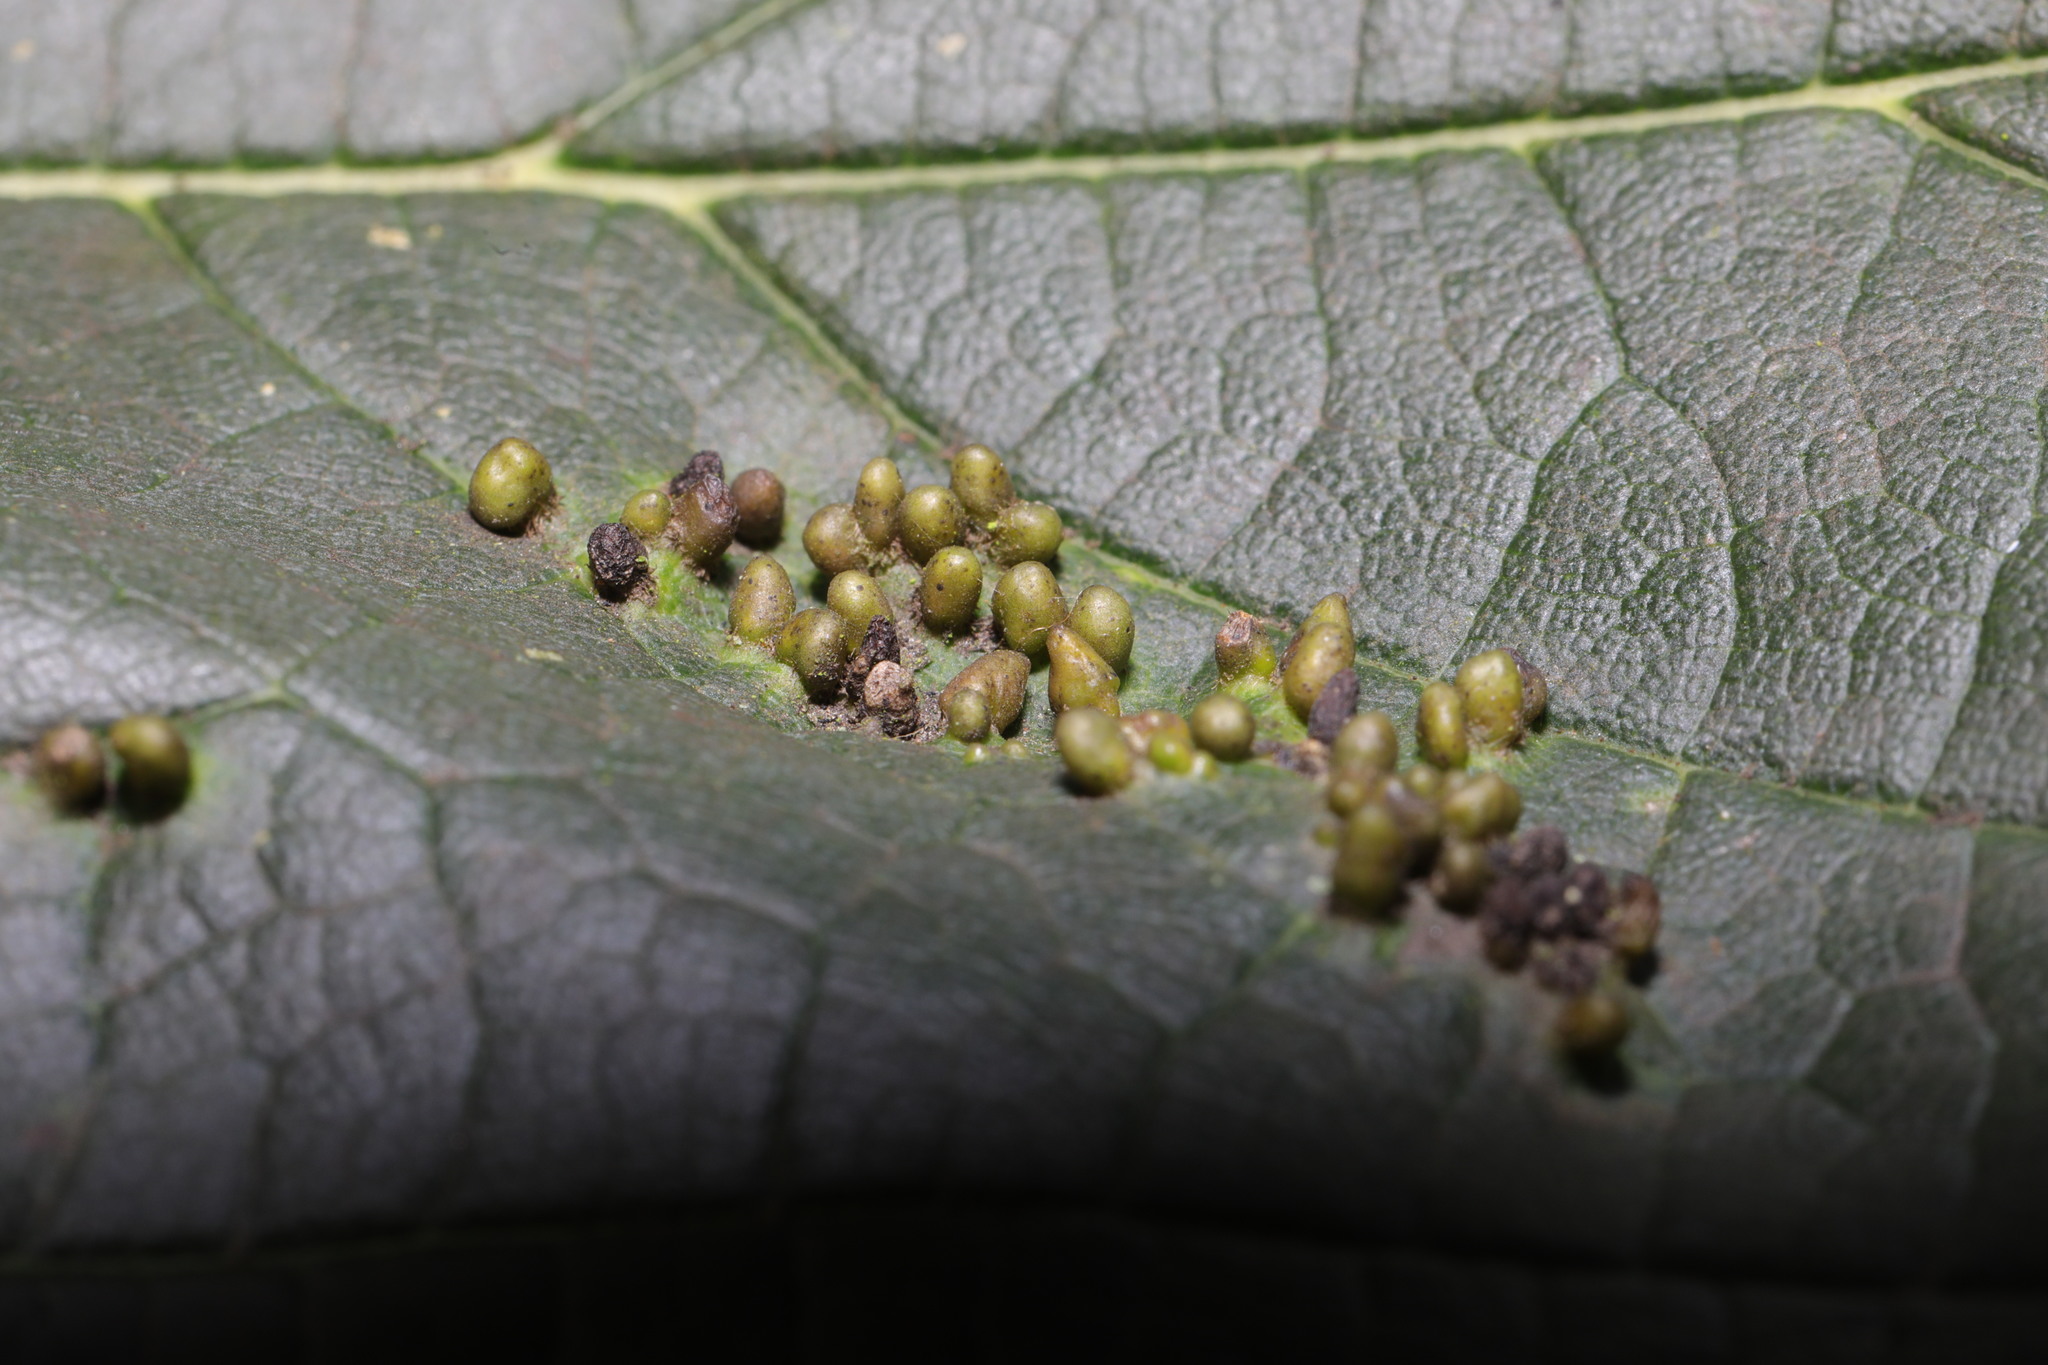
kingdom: Animalia
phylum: Arthropoda
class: Arachnida
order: Trombidiformes
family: Eriophyidae
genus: Aceria
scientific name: Aceria cephaloneus
